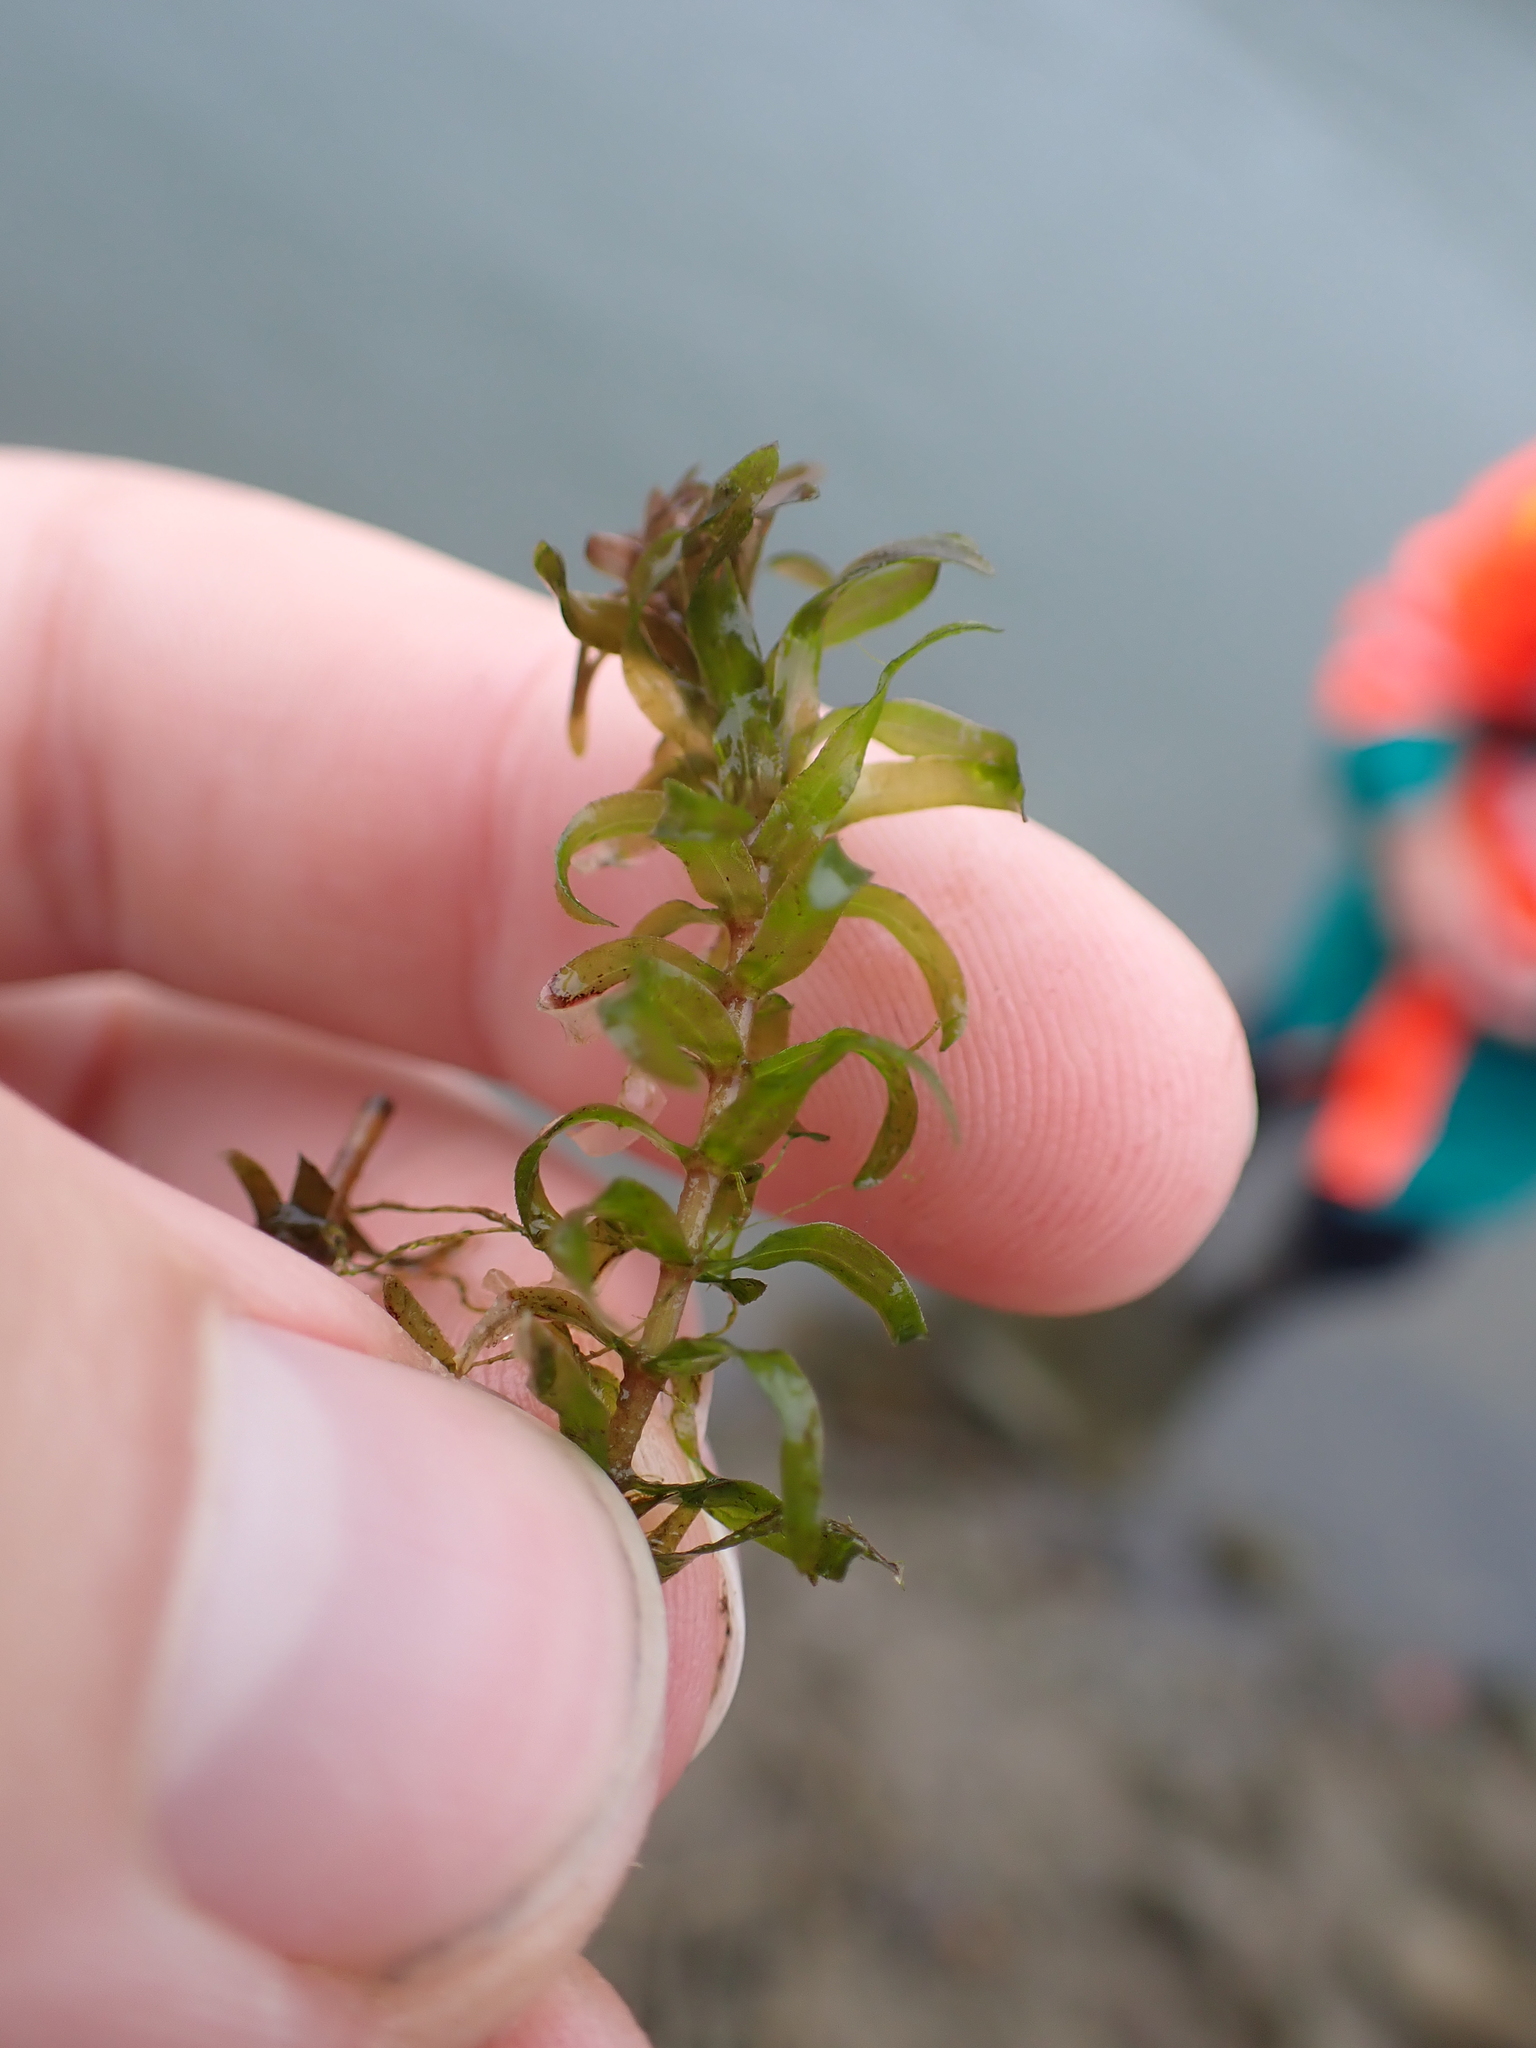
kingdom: Plantae
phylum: Tracheophyta
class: Liliopsida
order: Alismatales
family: Hydrocharitaceae
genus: Elodea
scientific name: Elodea nuttallii
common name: Nuttall's waterweed
